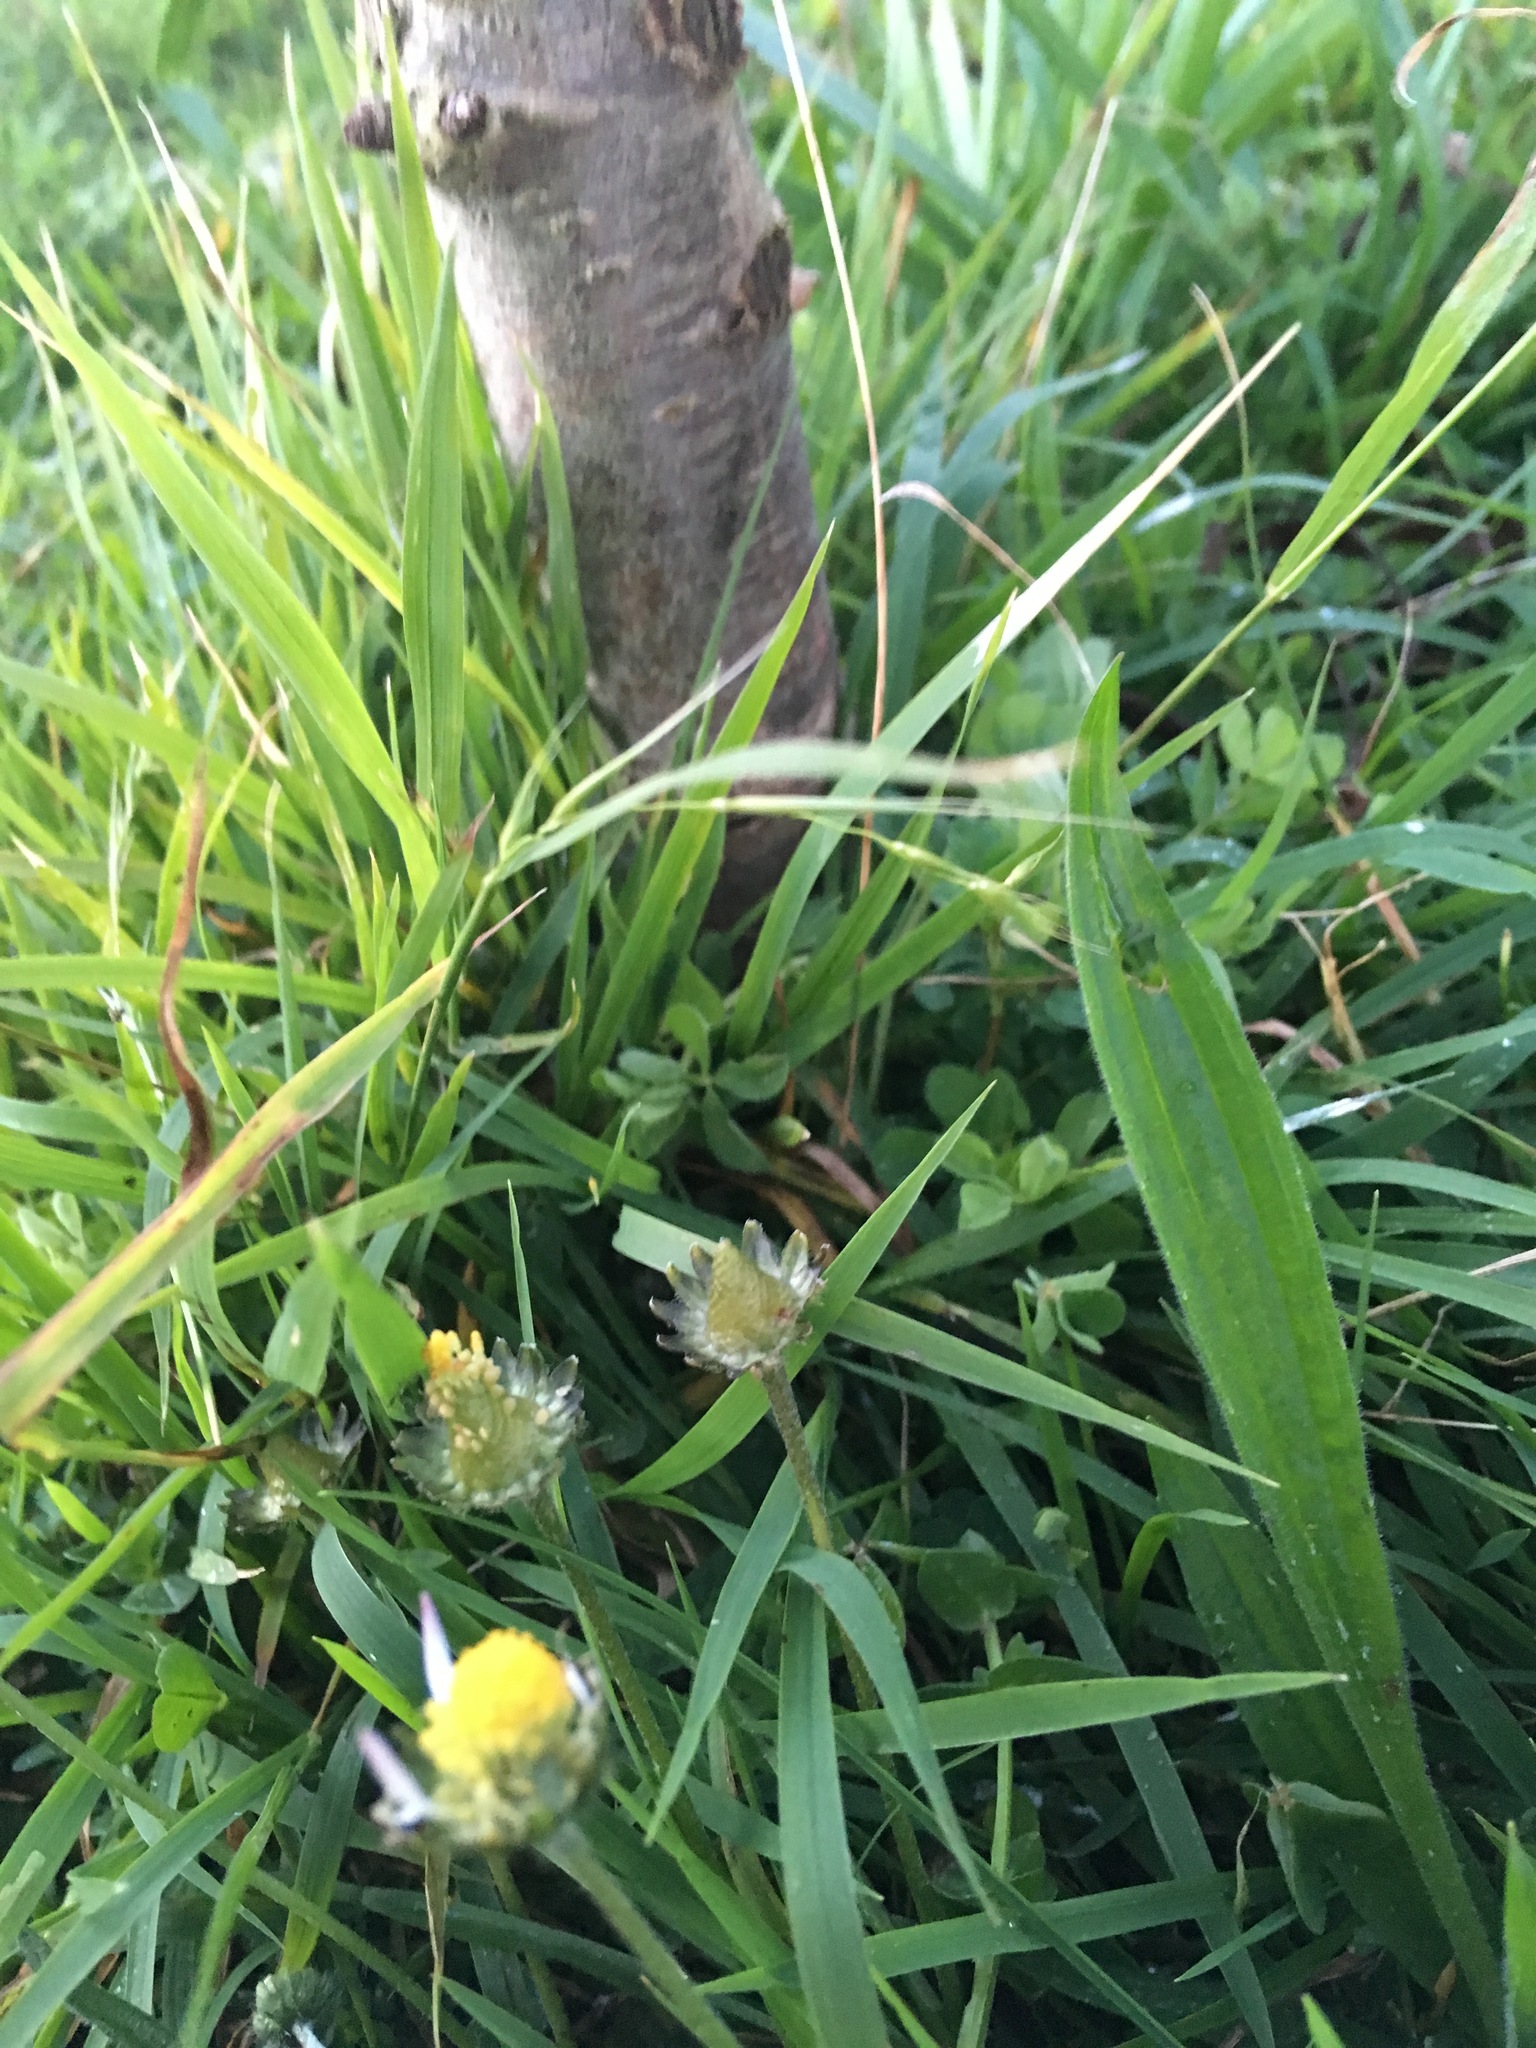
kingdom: Plantae
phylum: Tracheophyta
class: Magnoliopsida
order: Asterales
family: Asteraceae
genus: Bellis
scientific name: Bellis perennis
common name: Lawndaisy
